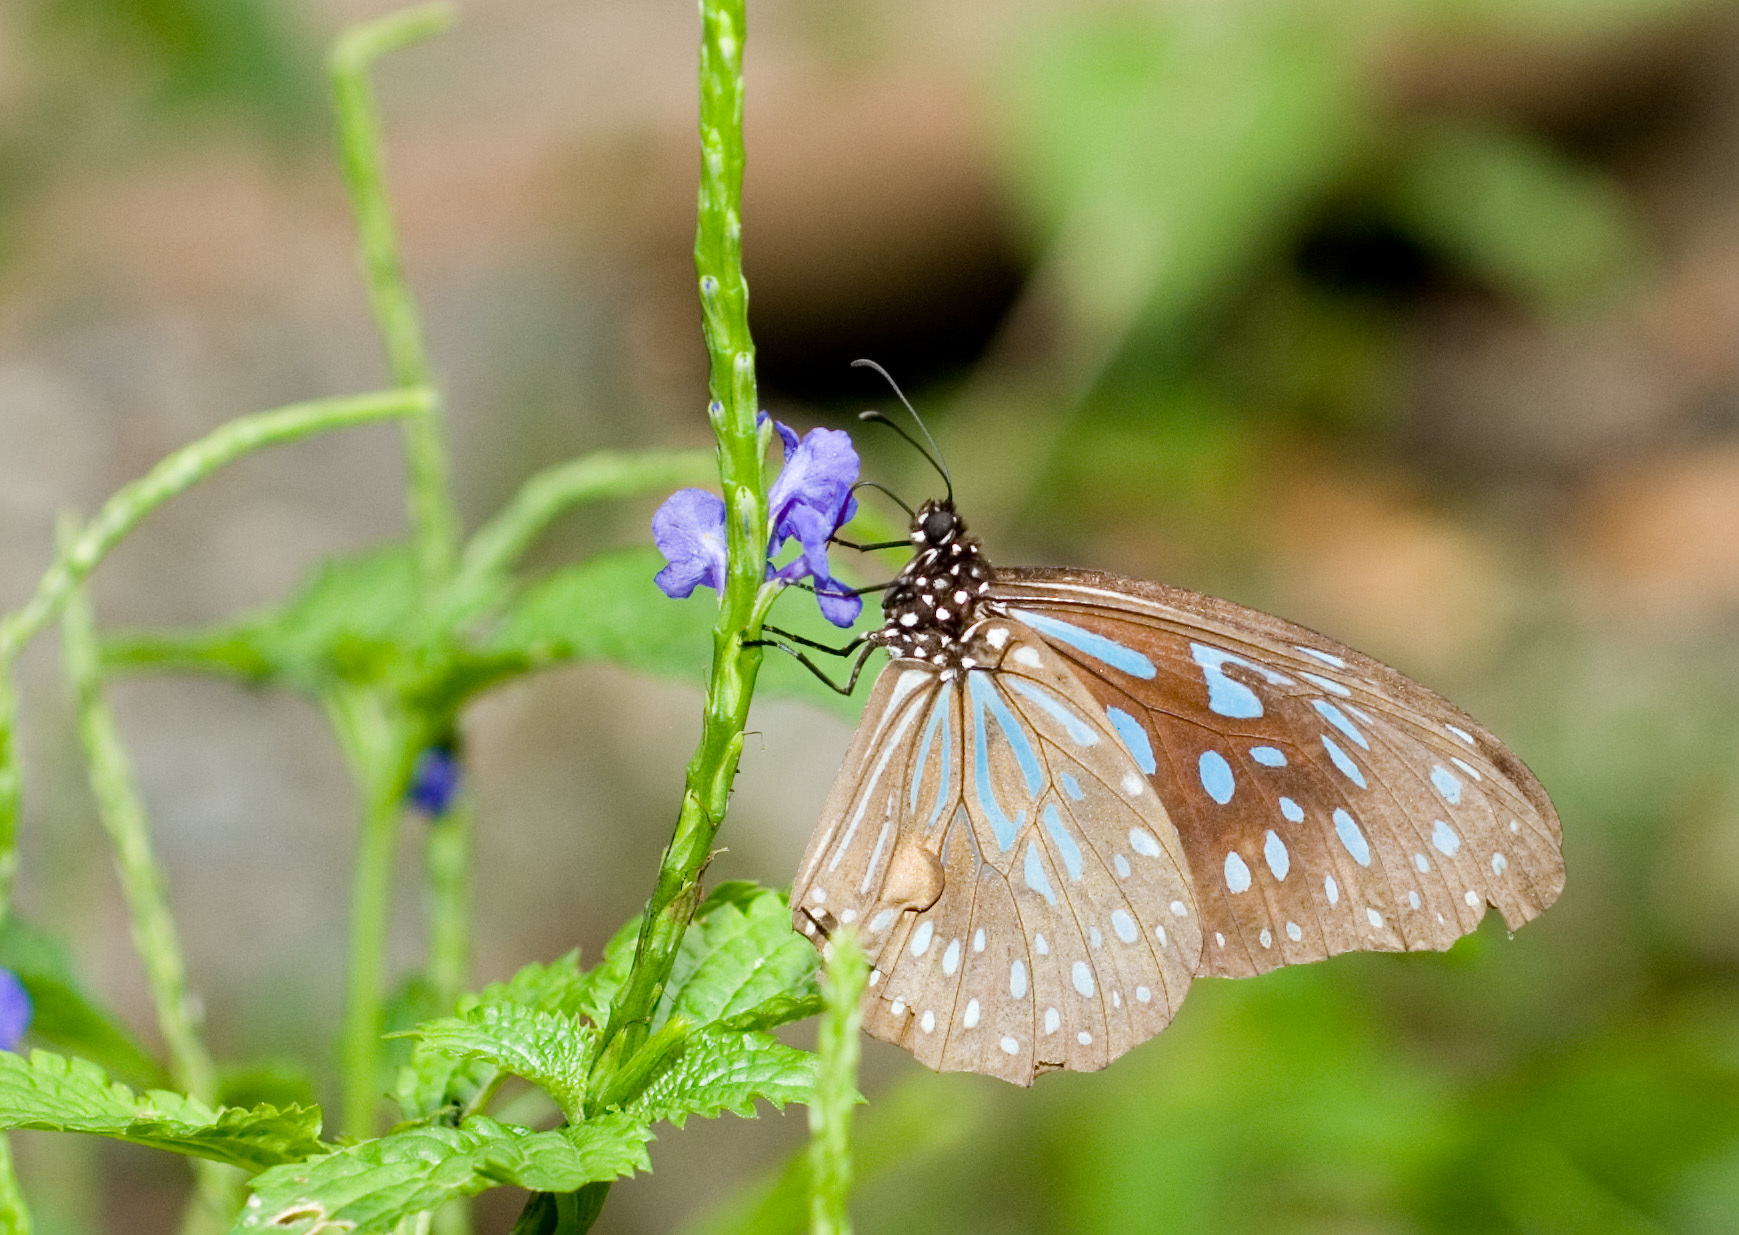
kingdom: Animalia
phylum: Arthropoda
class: Insecta
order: Lepidoptera
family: Nymphalidae
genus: Tirumala
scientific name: Tirumala limniace
